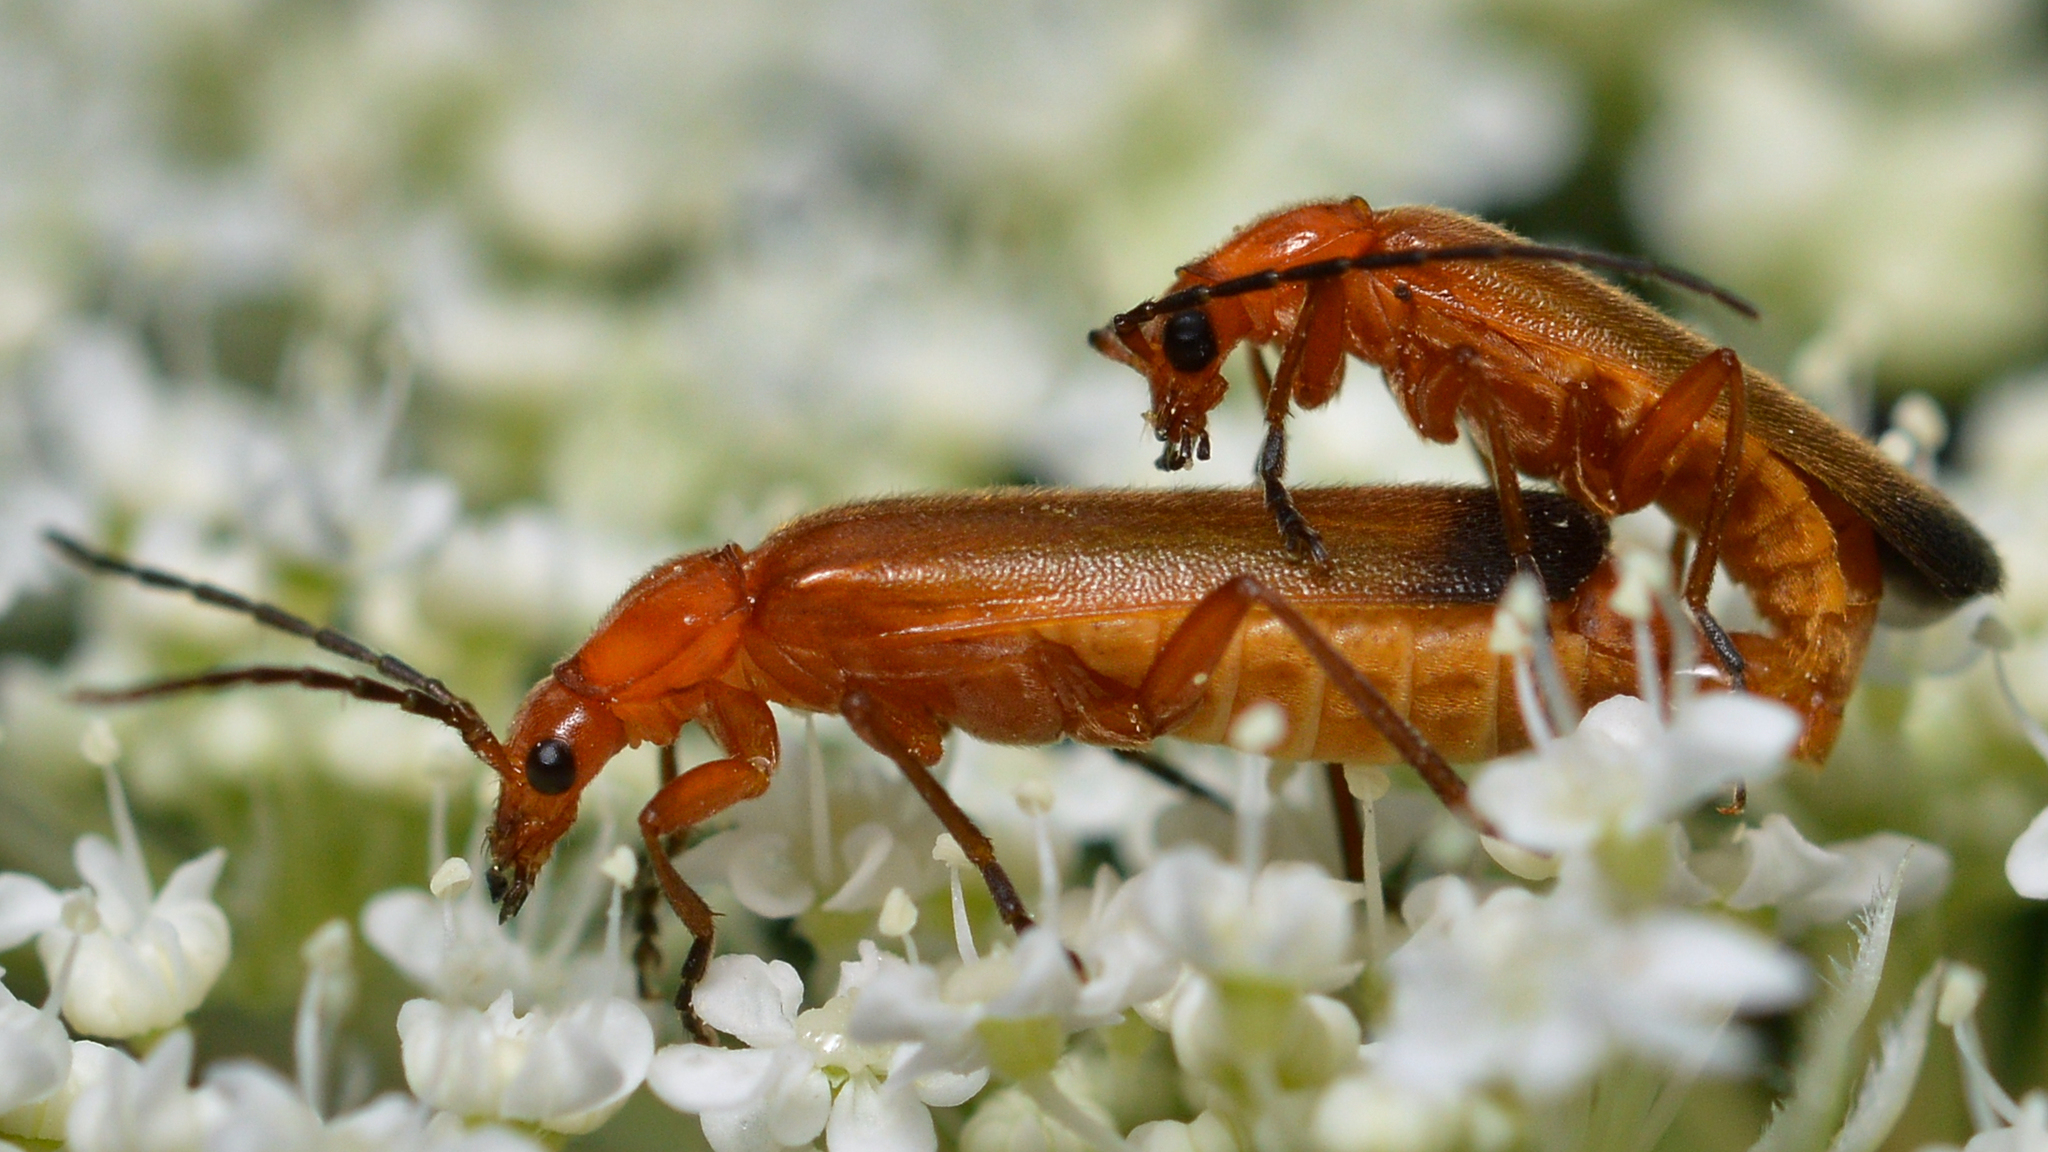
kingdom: Animalia
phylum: Arthropoda
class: Insecta
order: Coleoptera
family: Cantharidae
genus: Rhagonycha
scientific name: Rhagonycha fulva
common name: Common red soldier beetle
